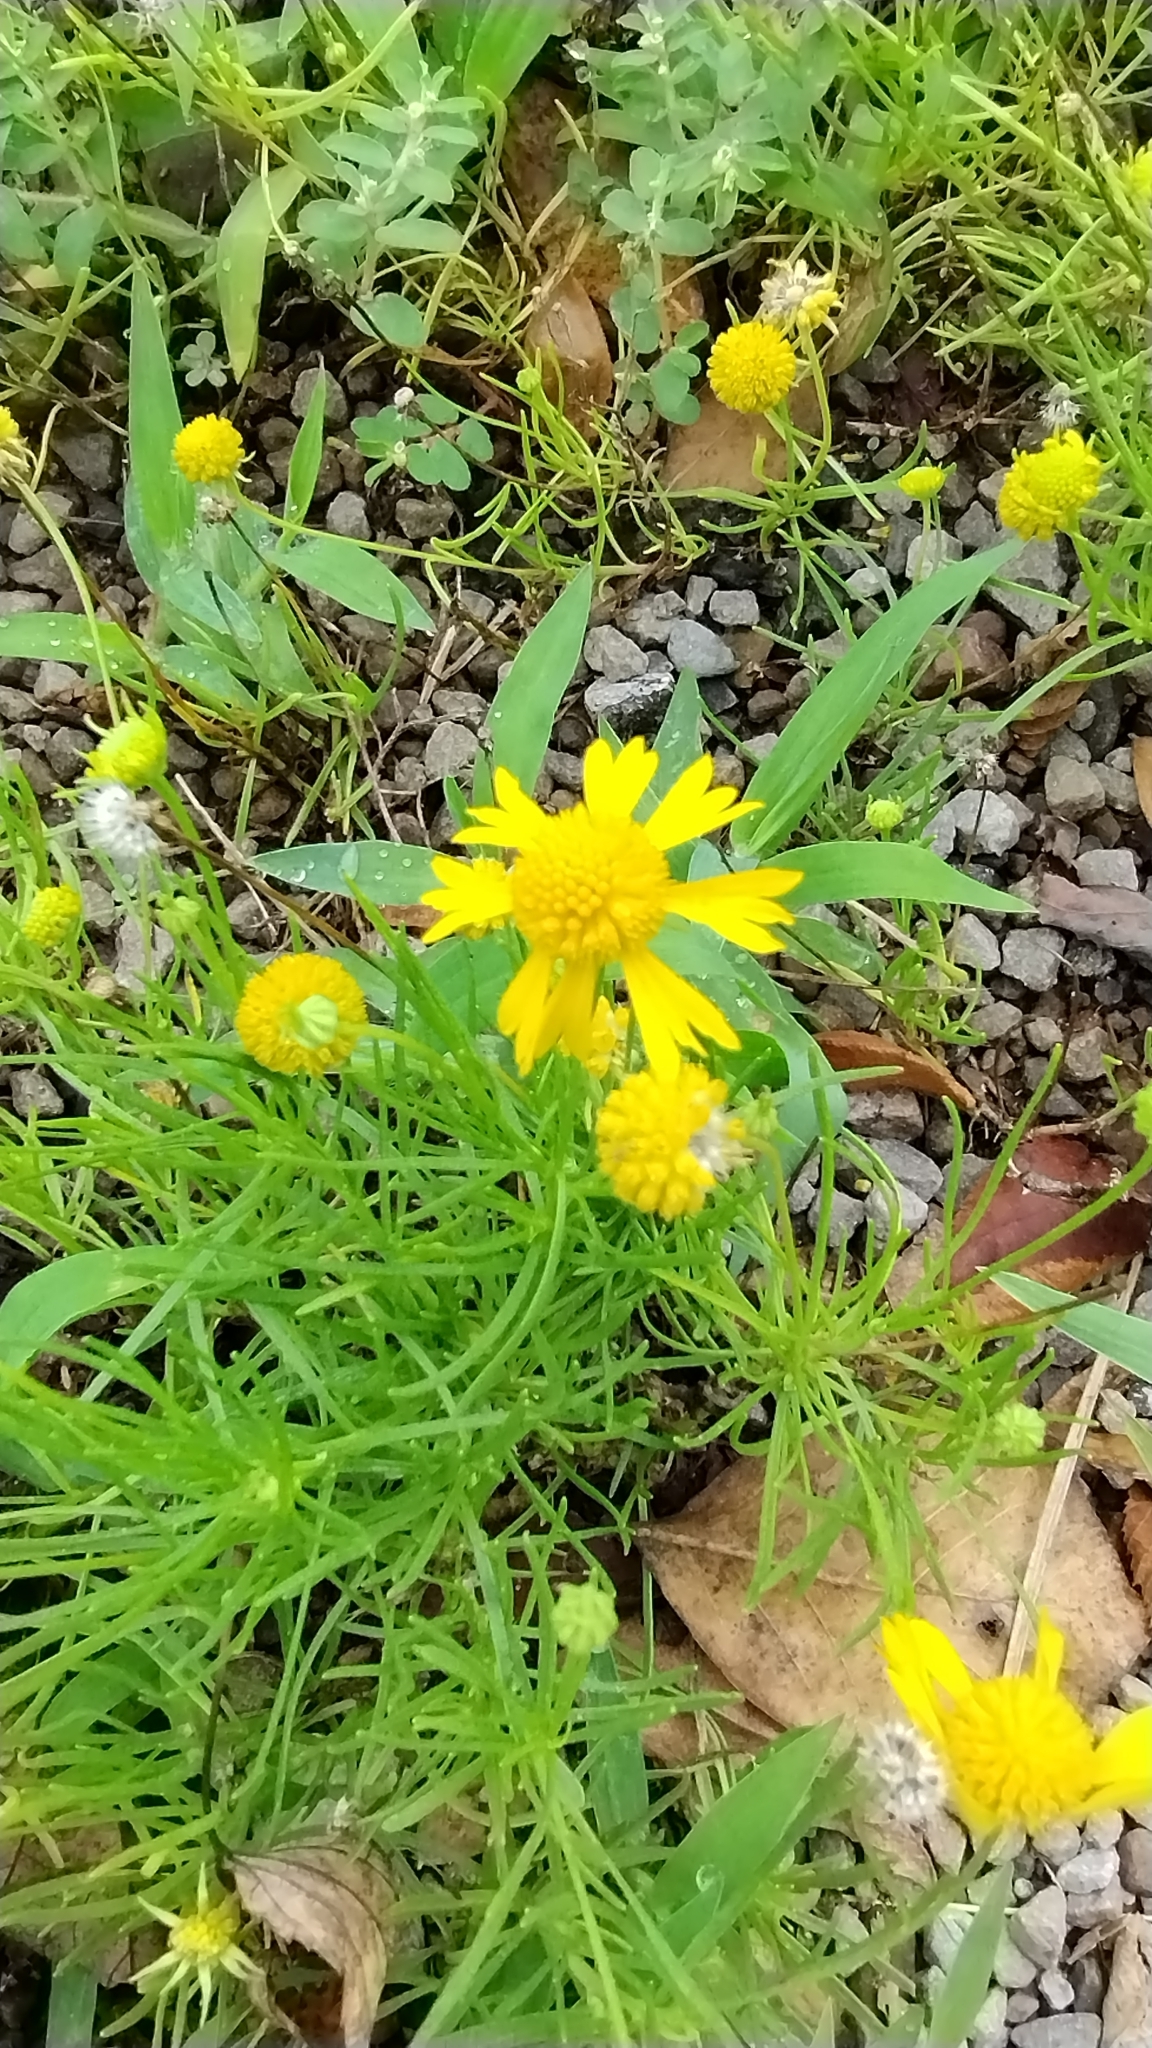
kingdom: Plantae
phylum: Tracheophyta
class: Magnoliopsida
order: Asterales
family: Asteraceae
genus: Helenium
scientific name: Helenium amarum
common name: Bitter sneezeweed
